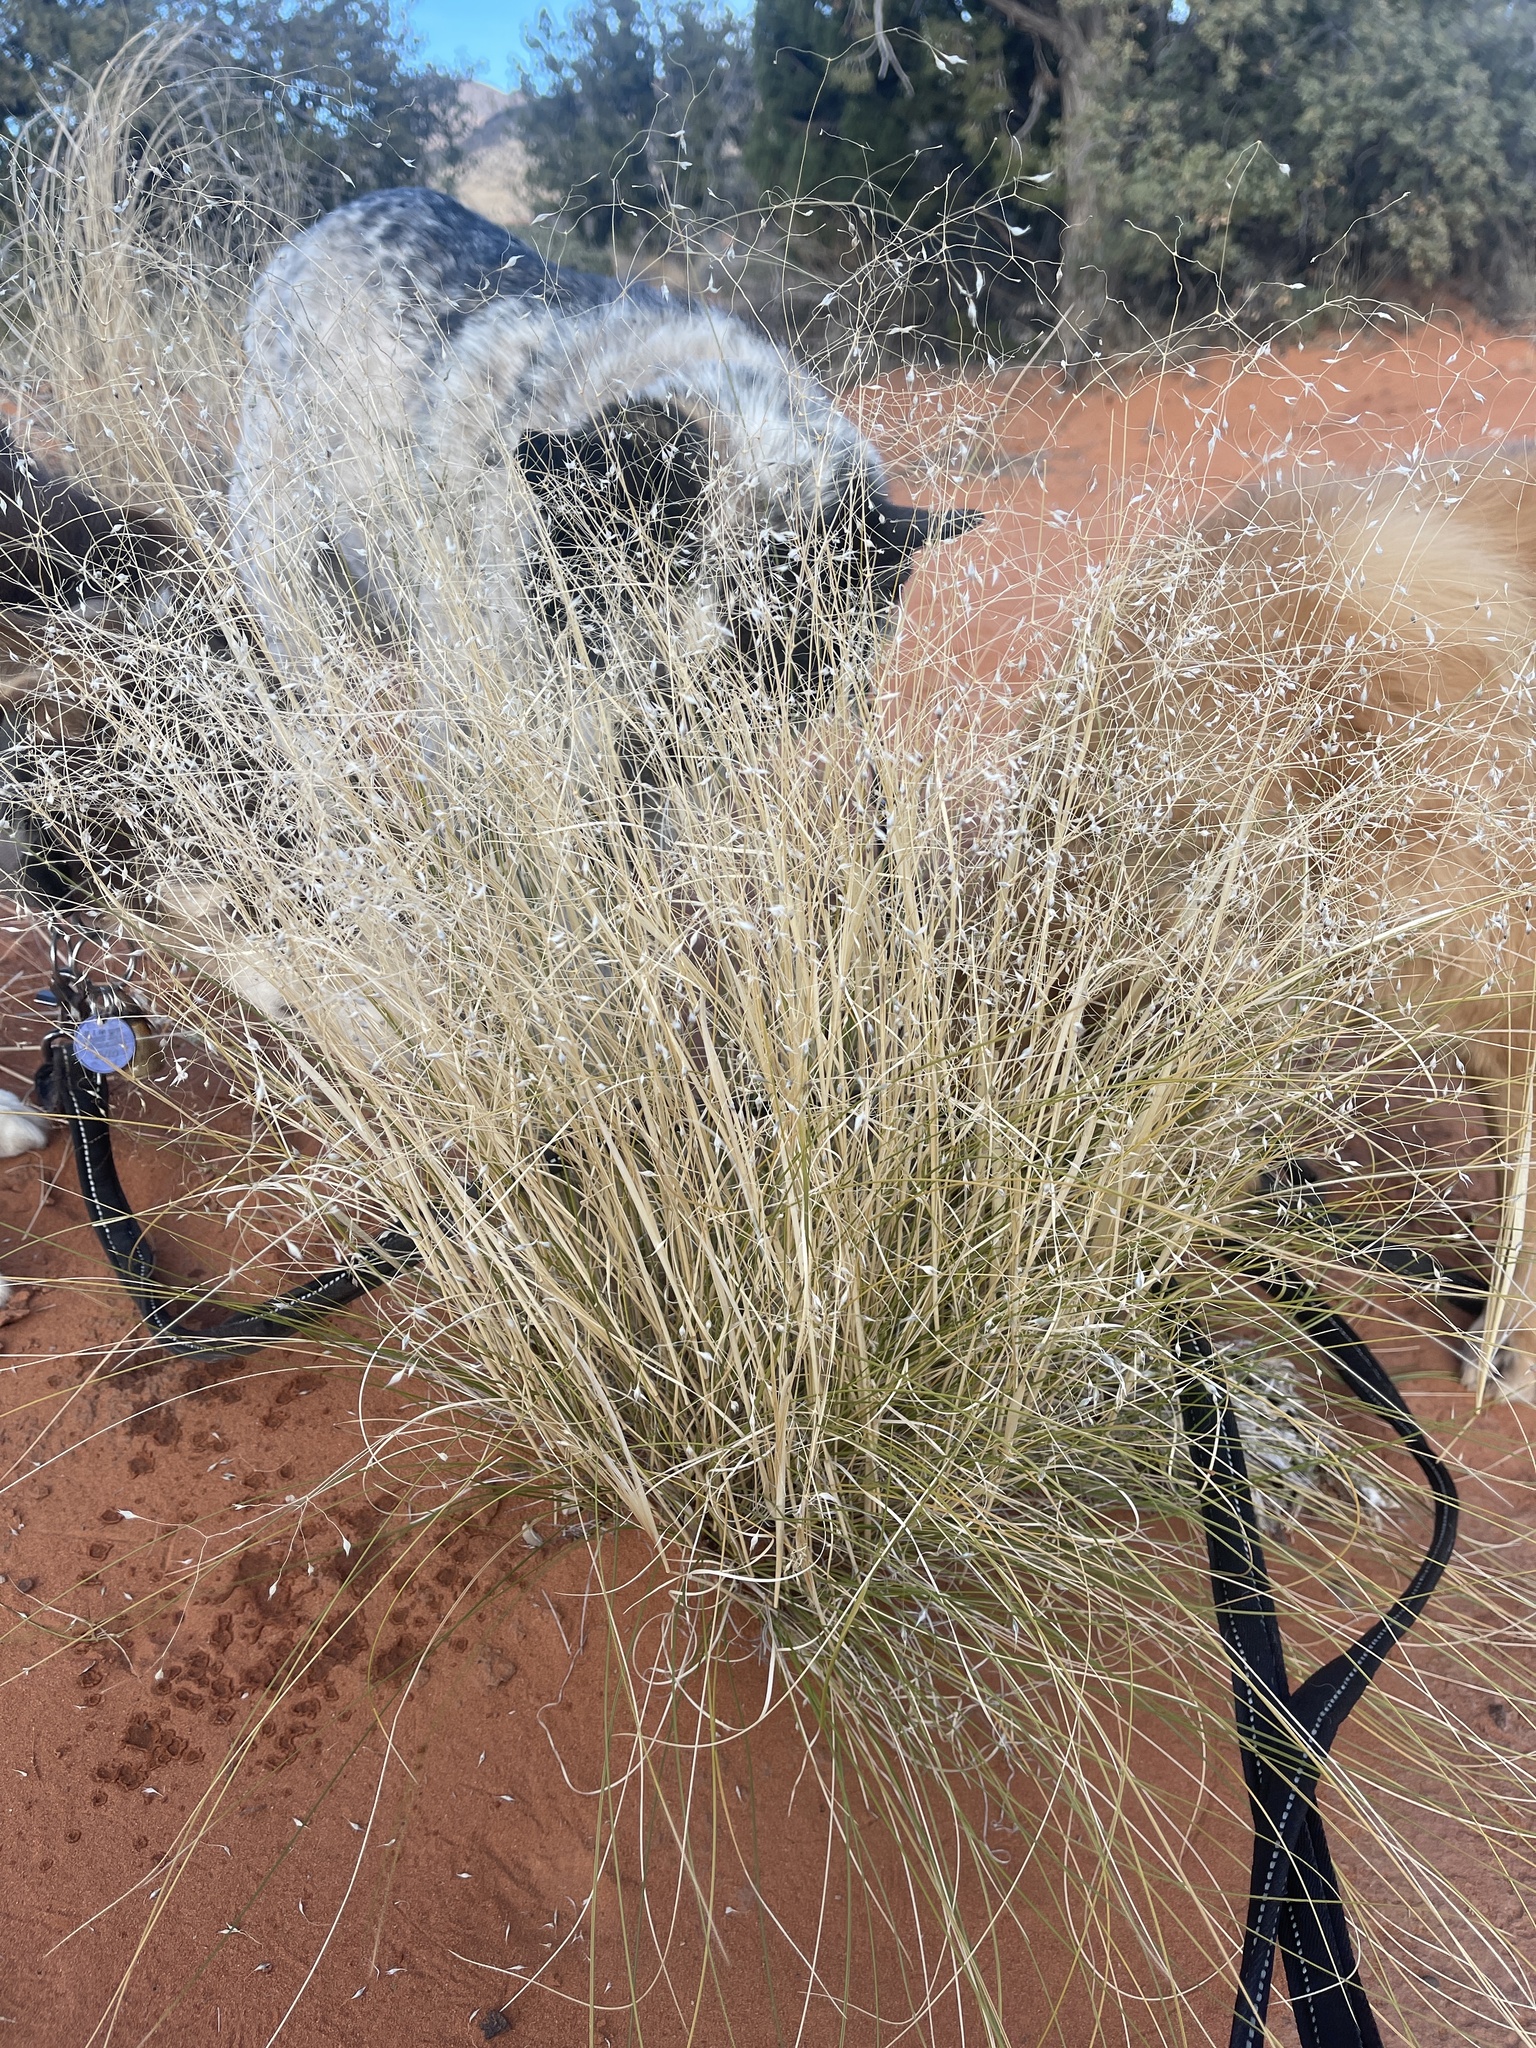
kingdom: Plantae
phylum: Tracheophyta
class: Liliopsida
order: Poales
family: Poaceae
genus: Eriocoma
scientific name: Eriocoma hymenoides
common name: Indian mountain ricegrass
